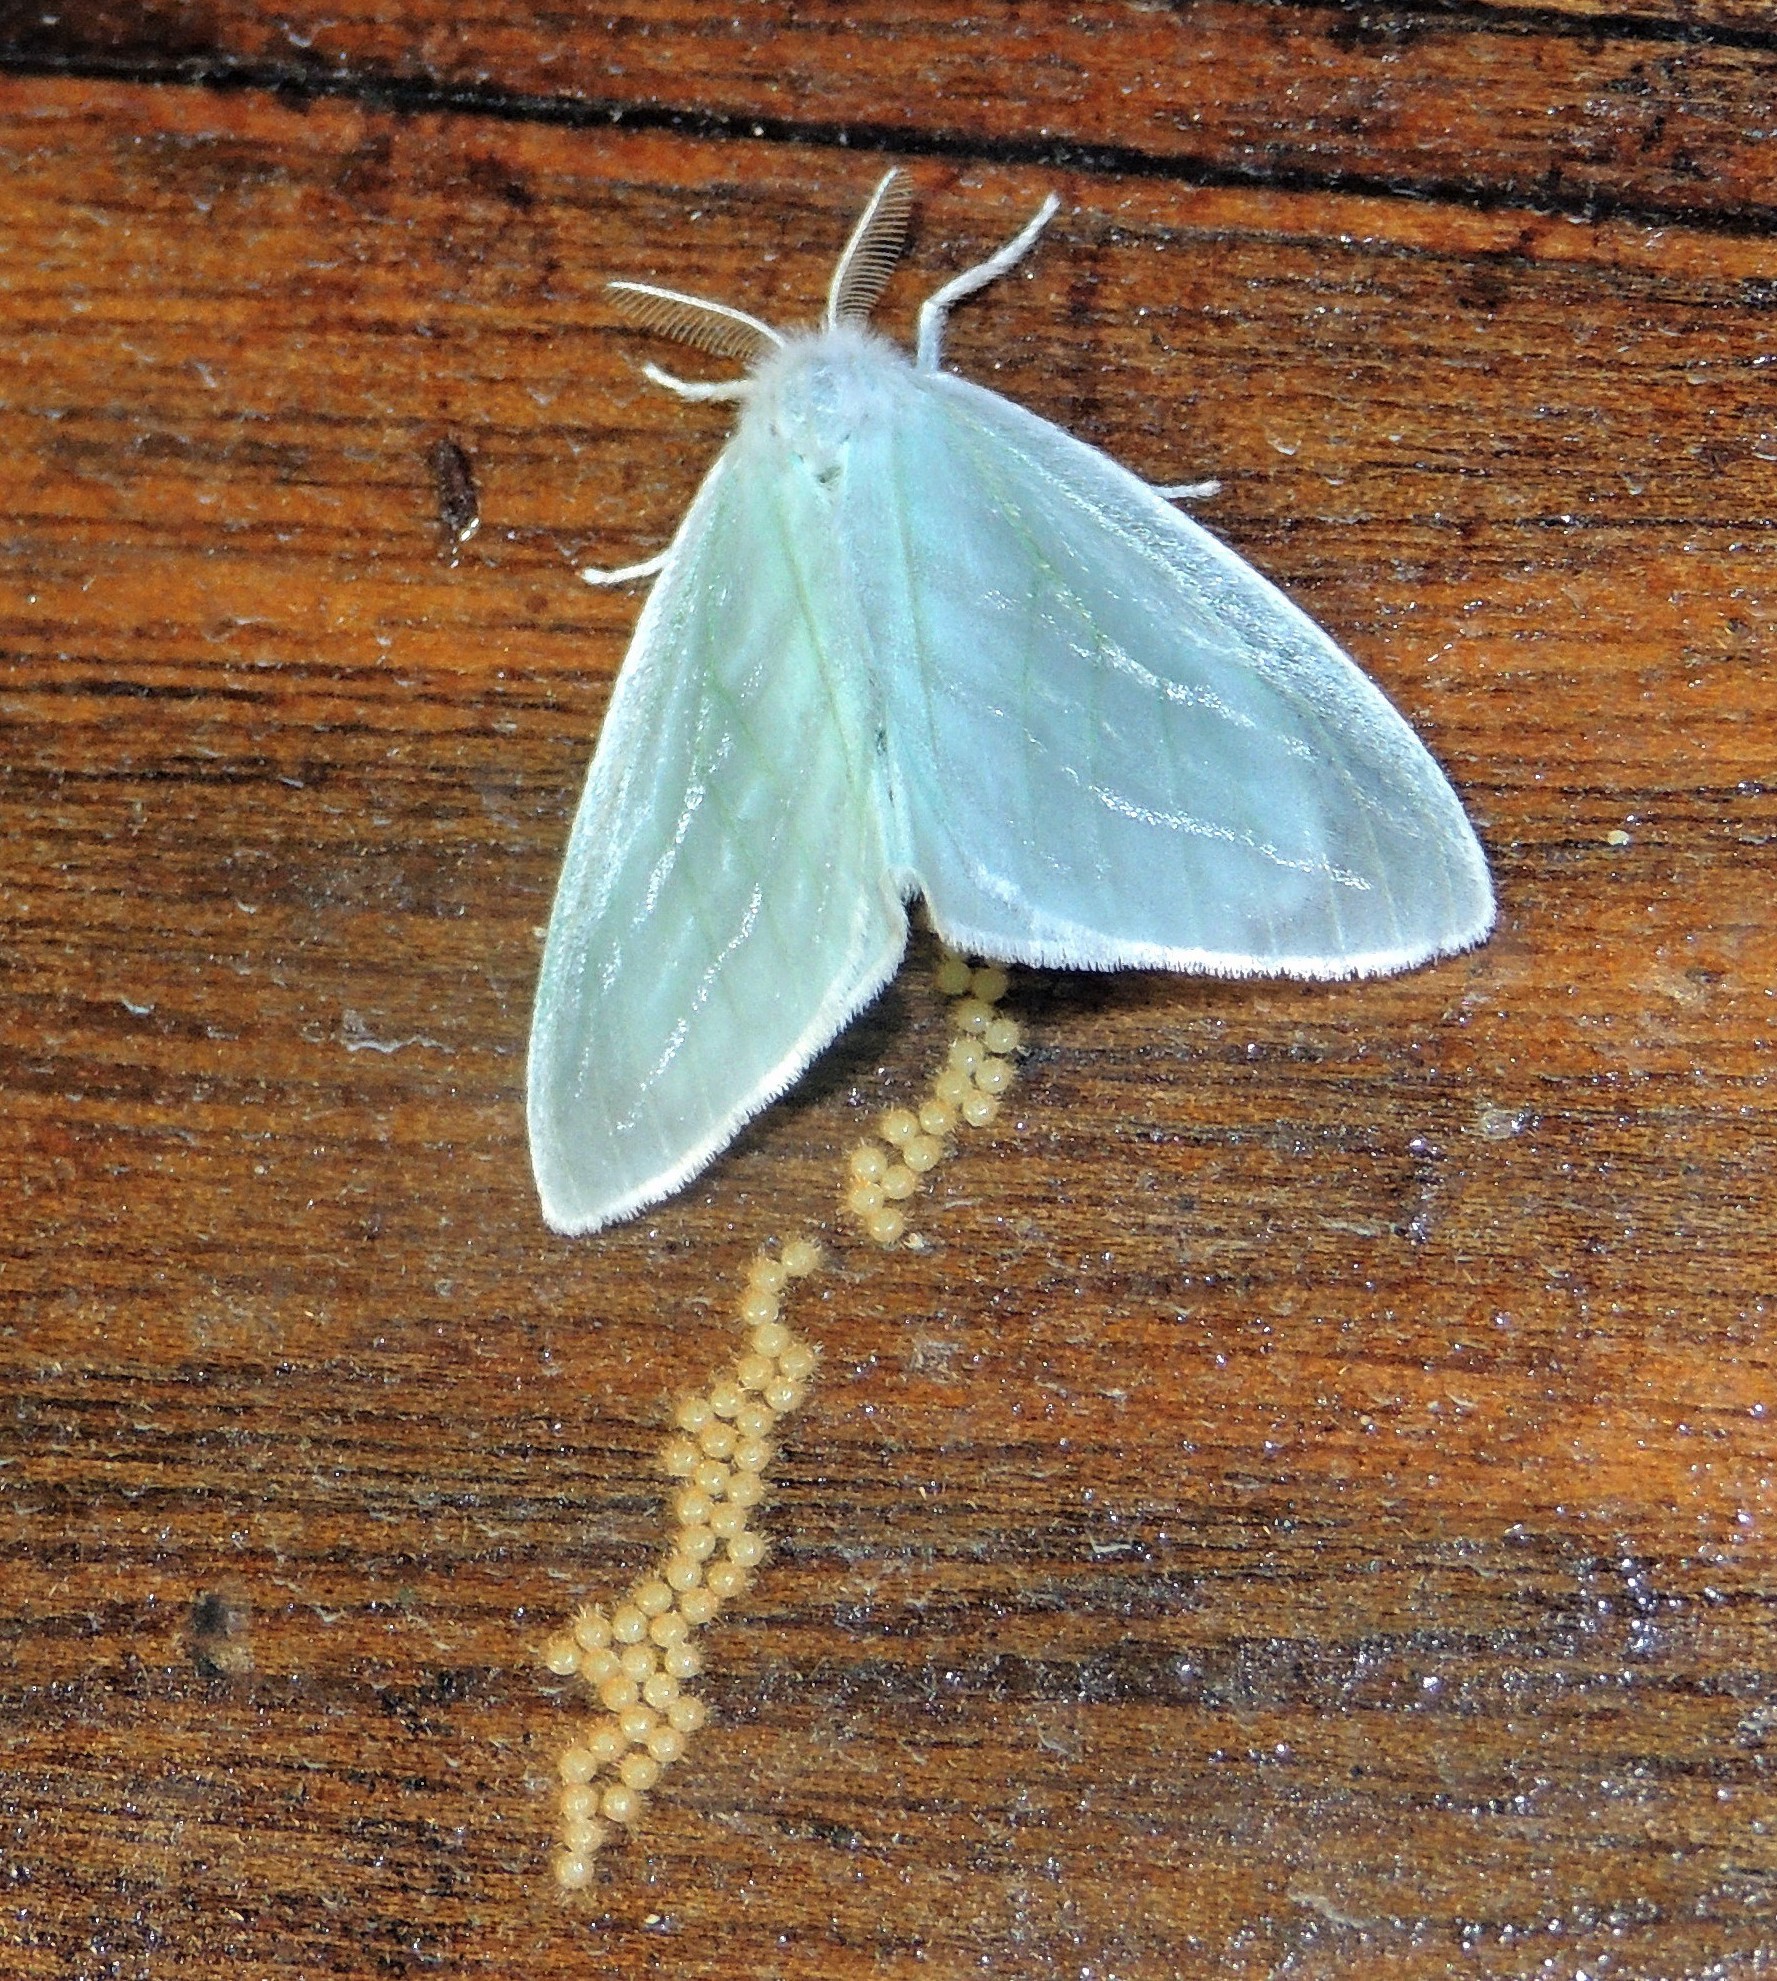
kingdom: Animalia
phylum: Arthropoda
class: Insecta
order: Lepidoptera
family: Erebidae
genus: Caviria
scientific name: Caviria regina
